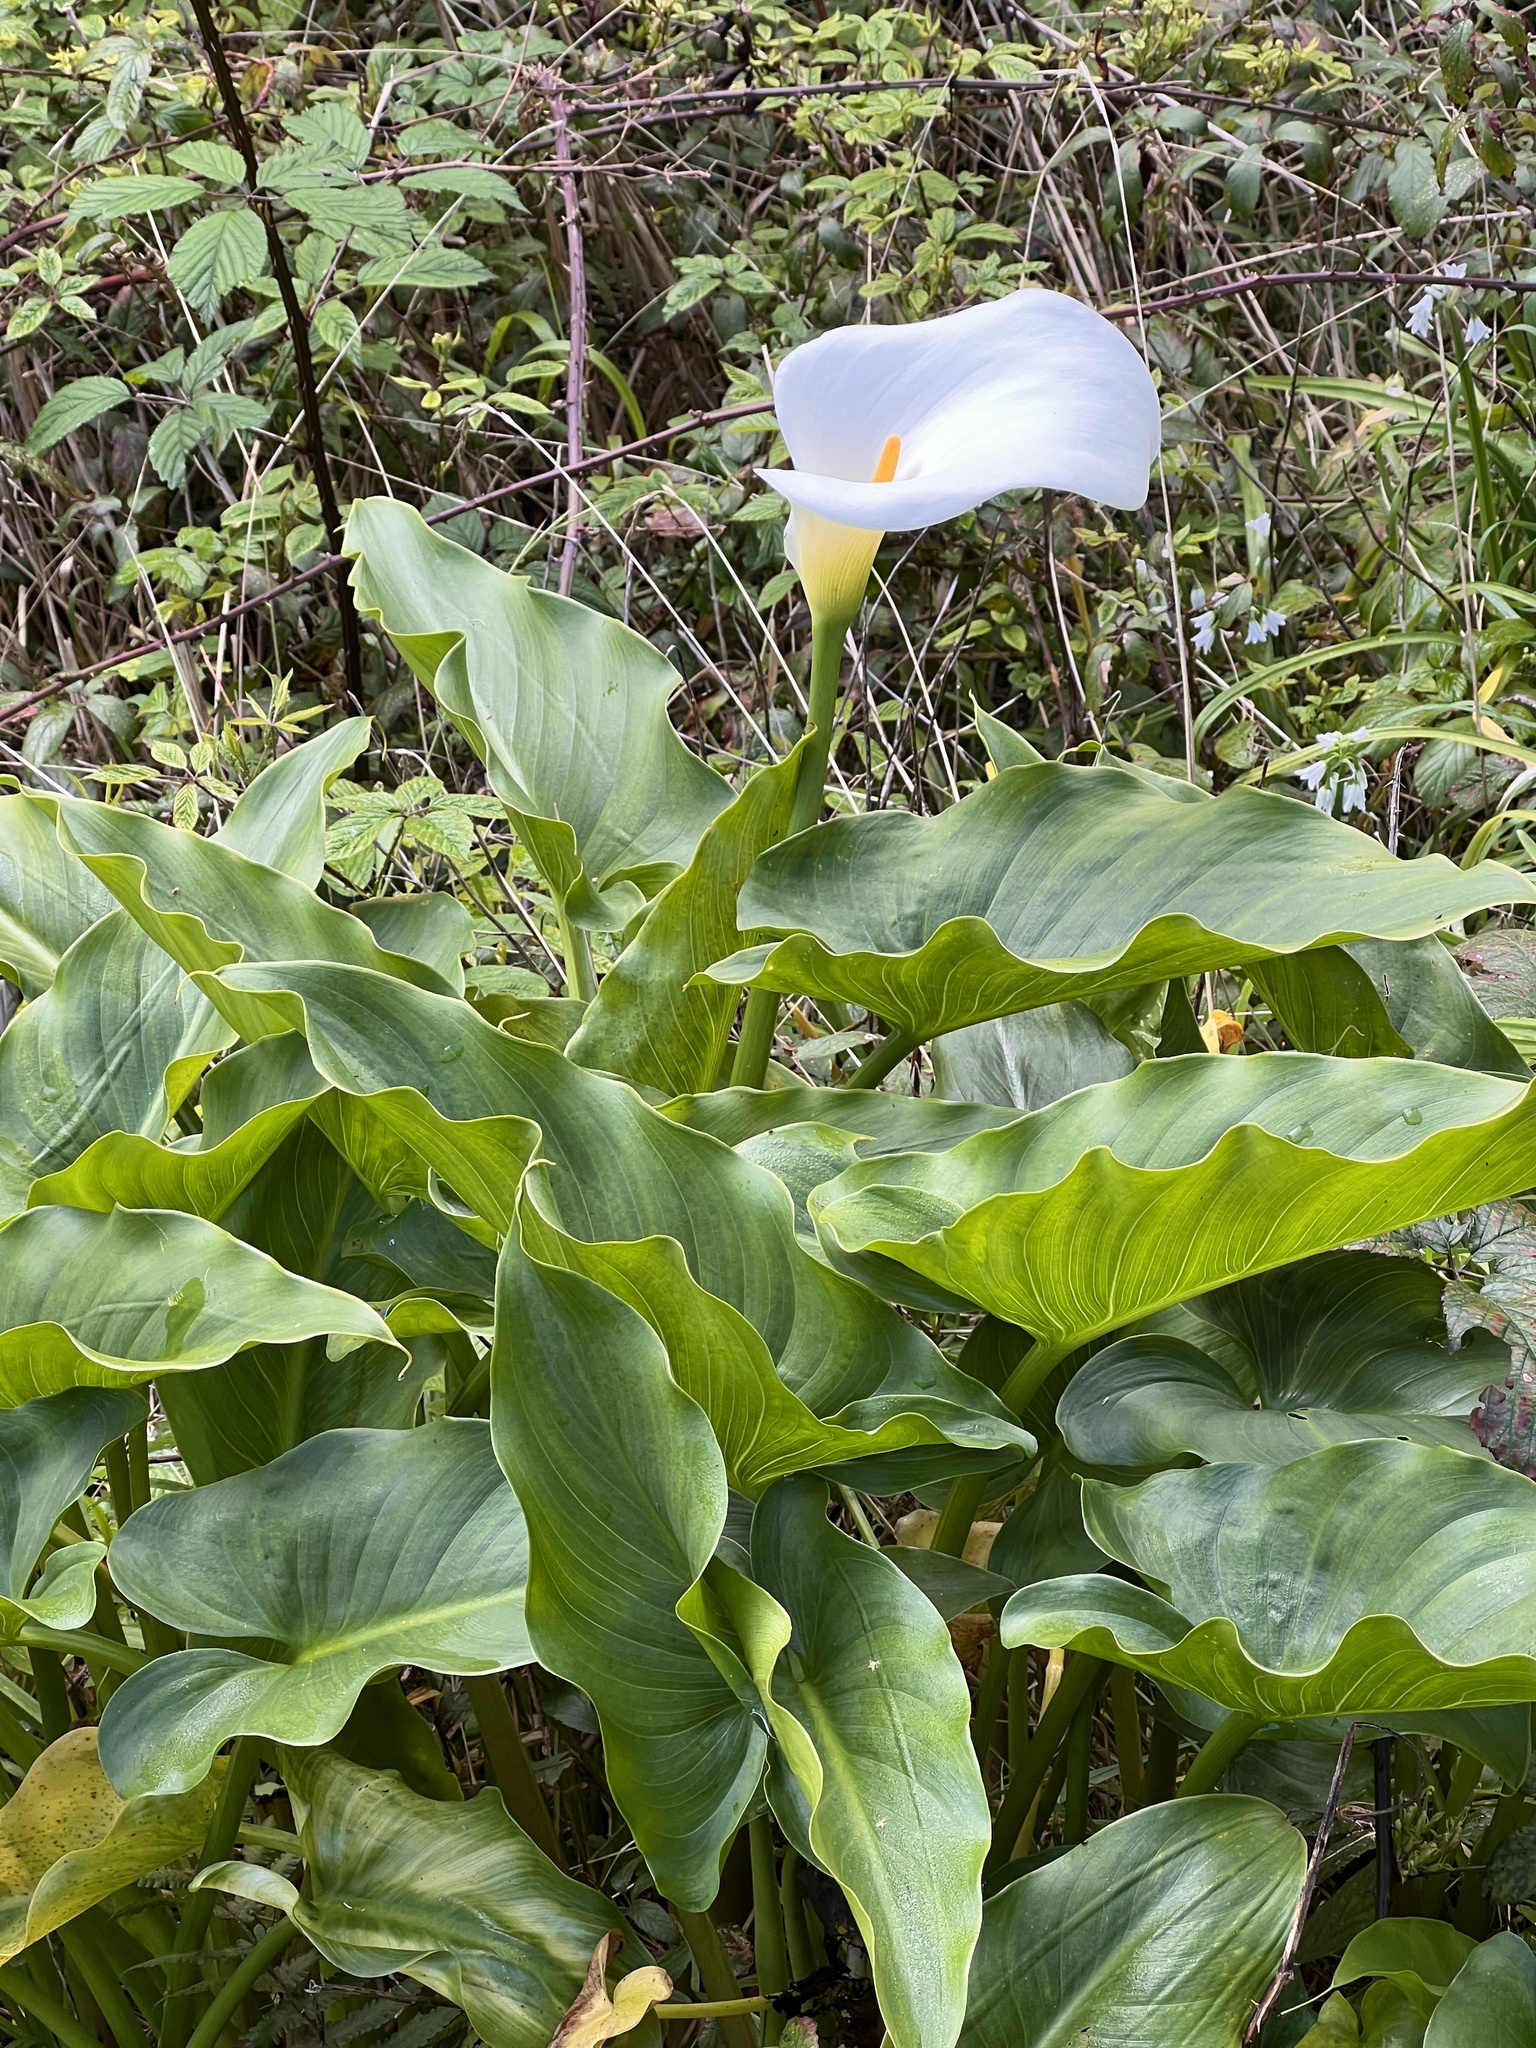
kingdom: Plantae
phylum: Tracheophyta
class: Liliopsida
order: Alismatales
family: Araceae
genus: Zantedeschia
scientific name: Zantedeschia aethiopica
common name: Altar-lily
